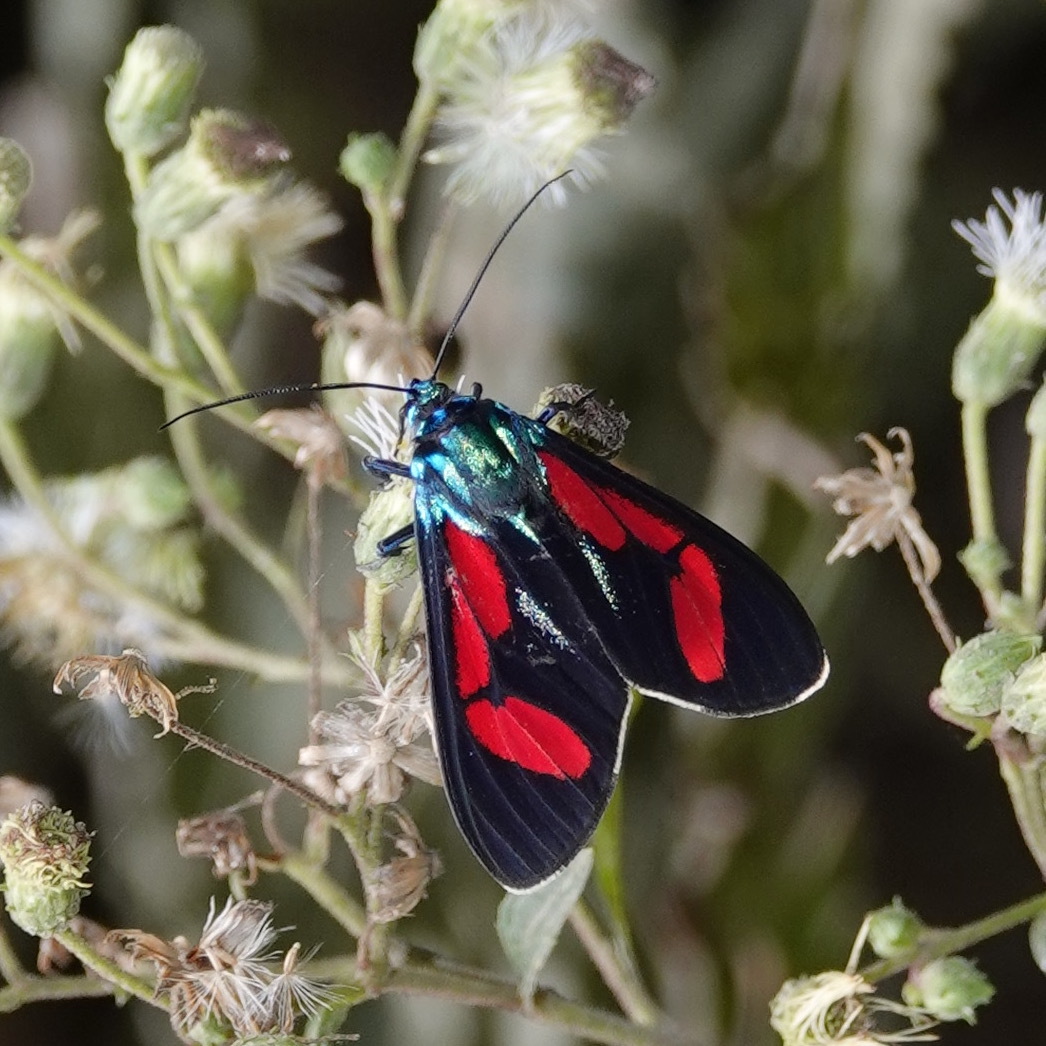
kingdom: Animalia
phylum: Arthropoda
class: Insecta
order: Lepidoptera
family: Erebidae
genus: Cyanopepla
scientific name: Cyanopepla hurama
